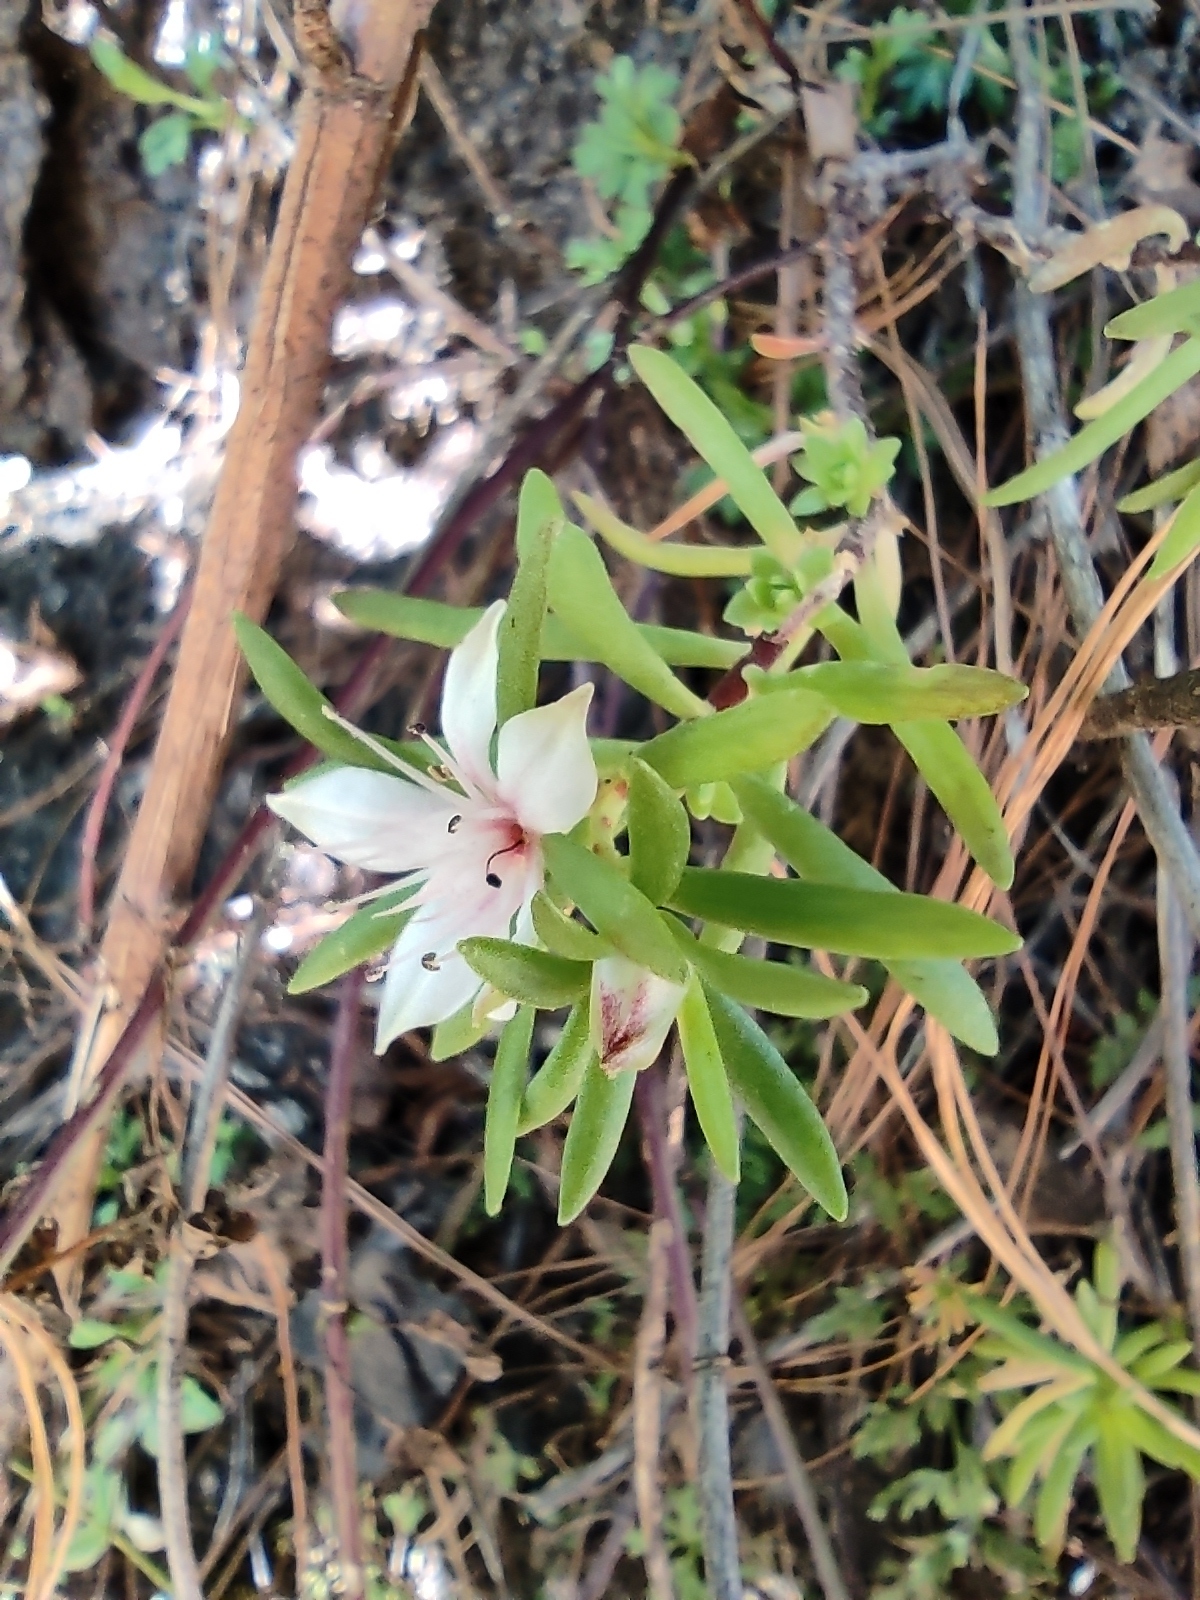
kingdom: Plantae
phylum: Tracheophyta
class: Magnoliopsida
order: Saxifragales
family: Crassulaceae
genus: Sedum
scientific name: Sedum neovolcanicum
